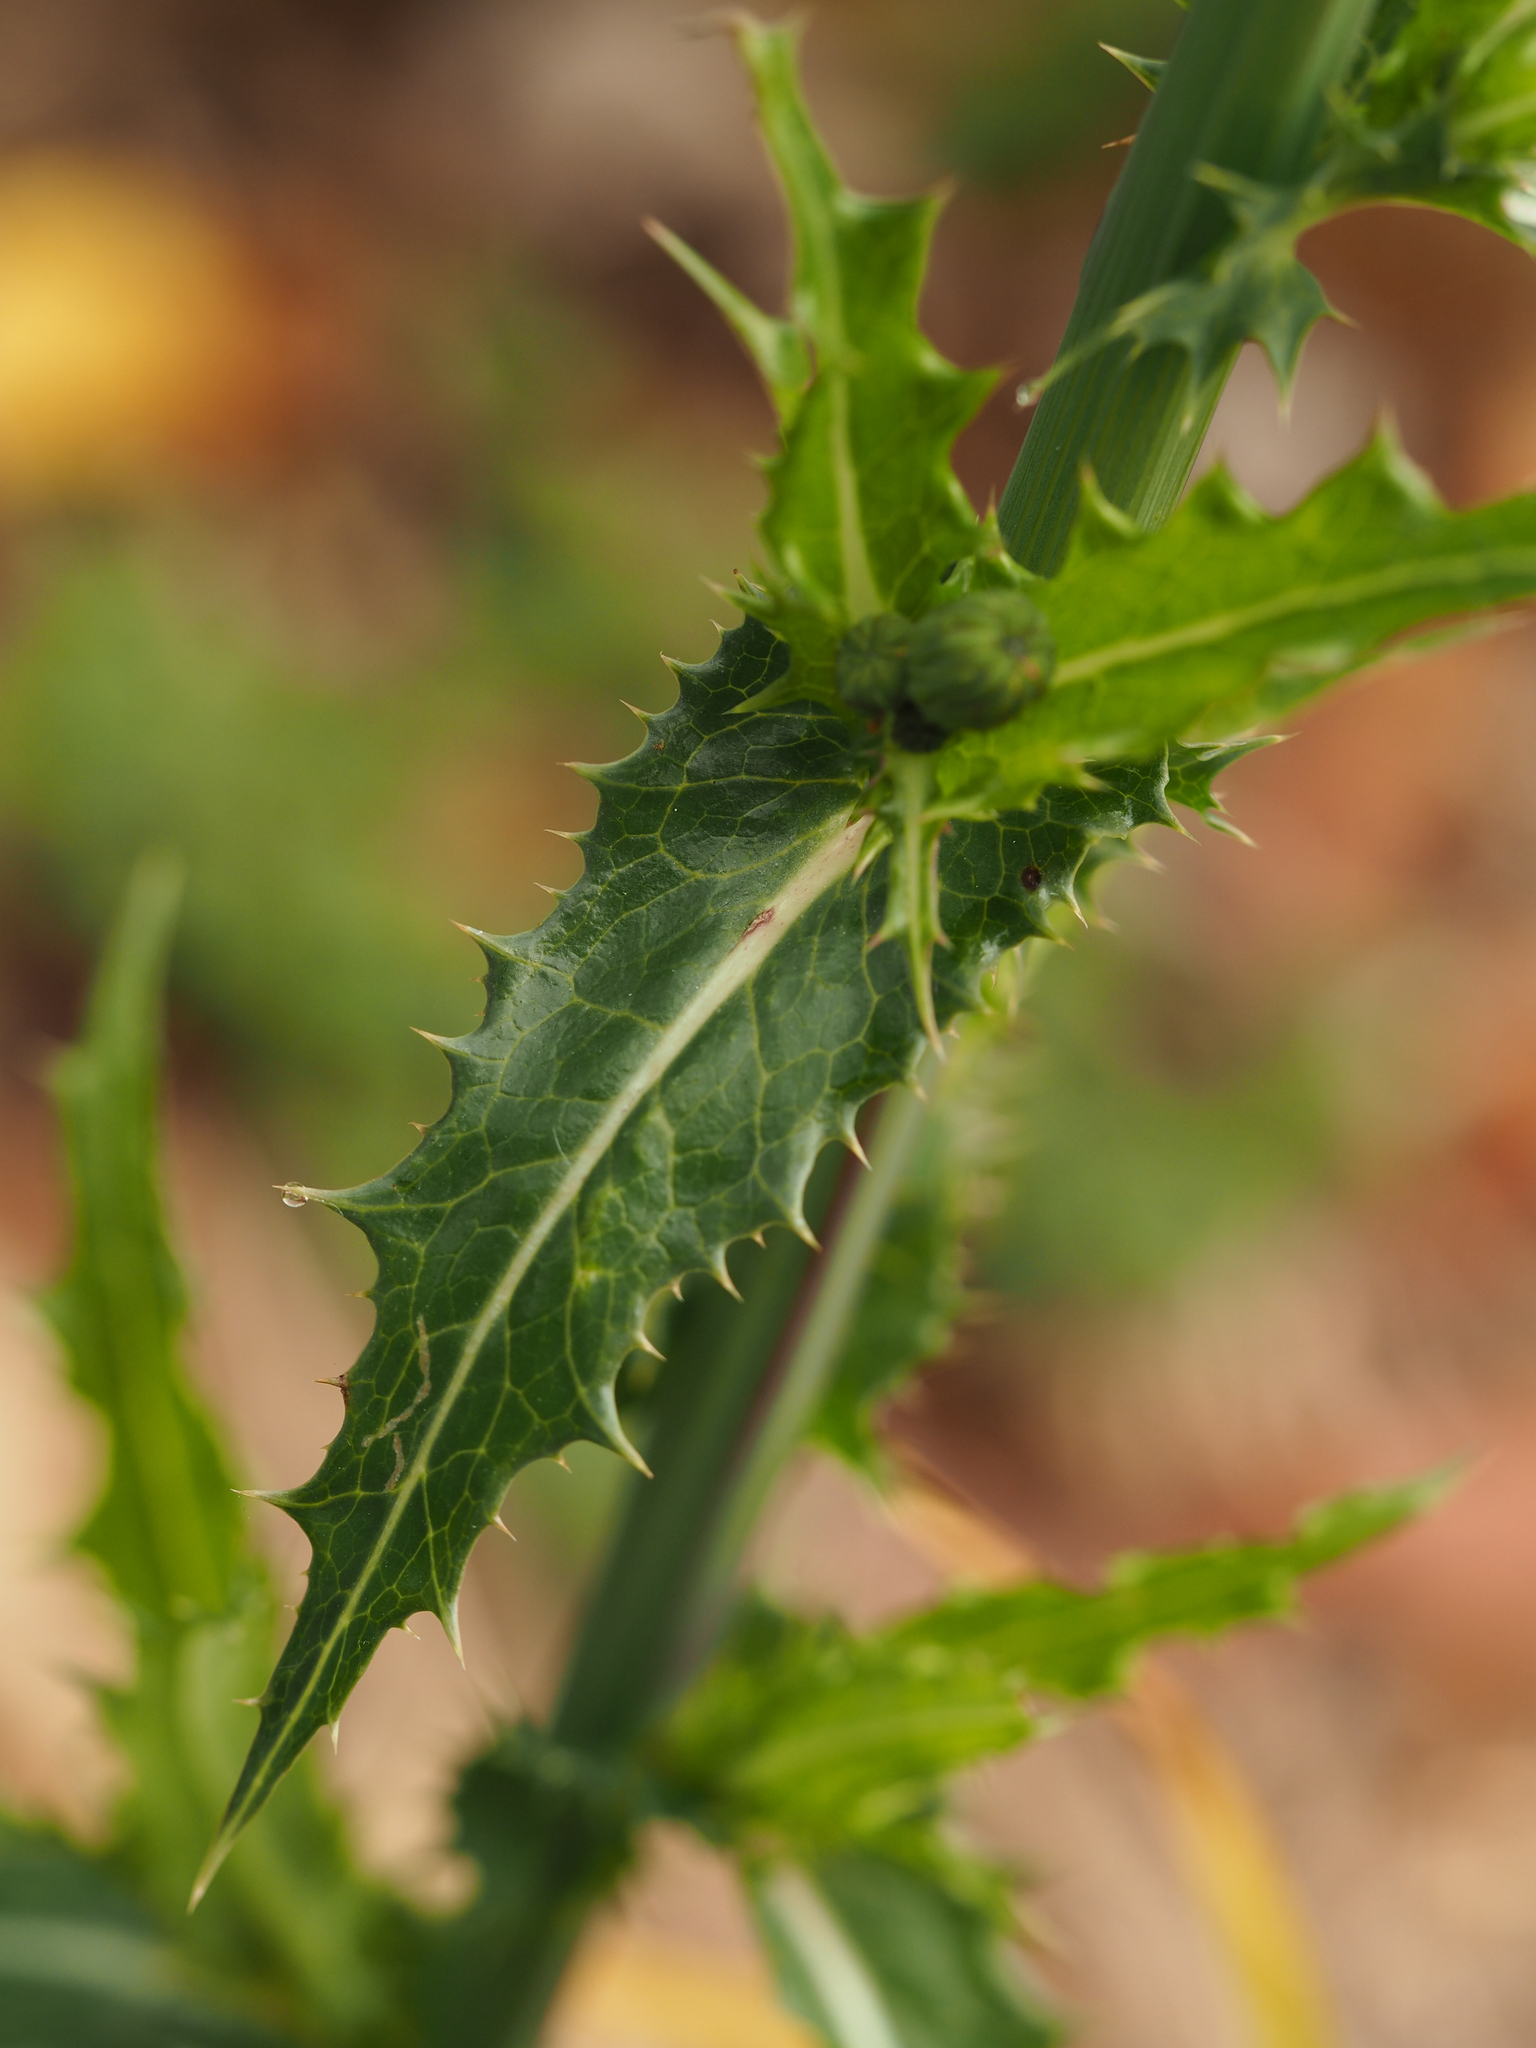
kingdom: Plantae
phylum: Tracheophyta
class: Magnoliopsida
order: Asterales
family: Asteraceae
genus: Sonchus
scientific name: Sonchus asper
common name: Prickly sow-thistle
